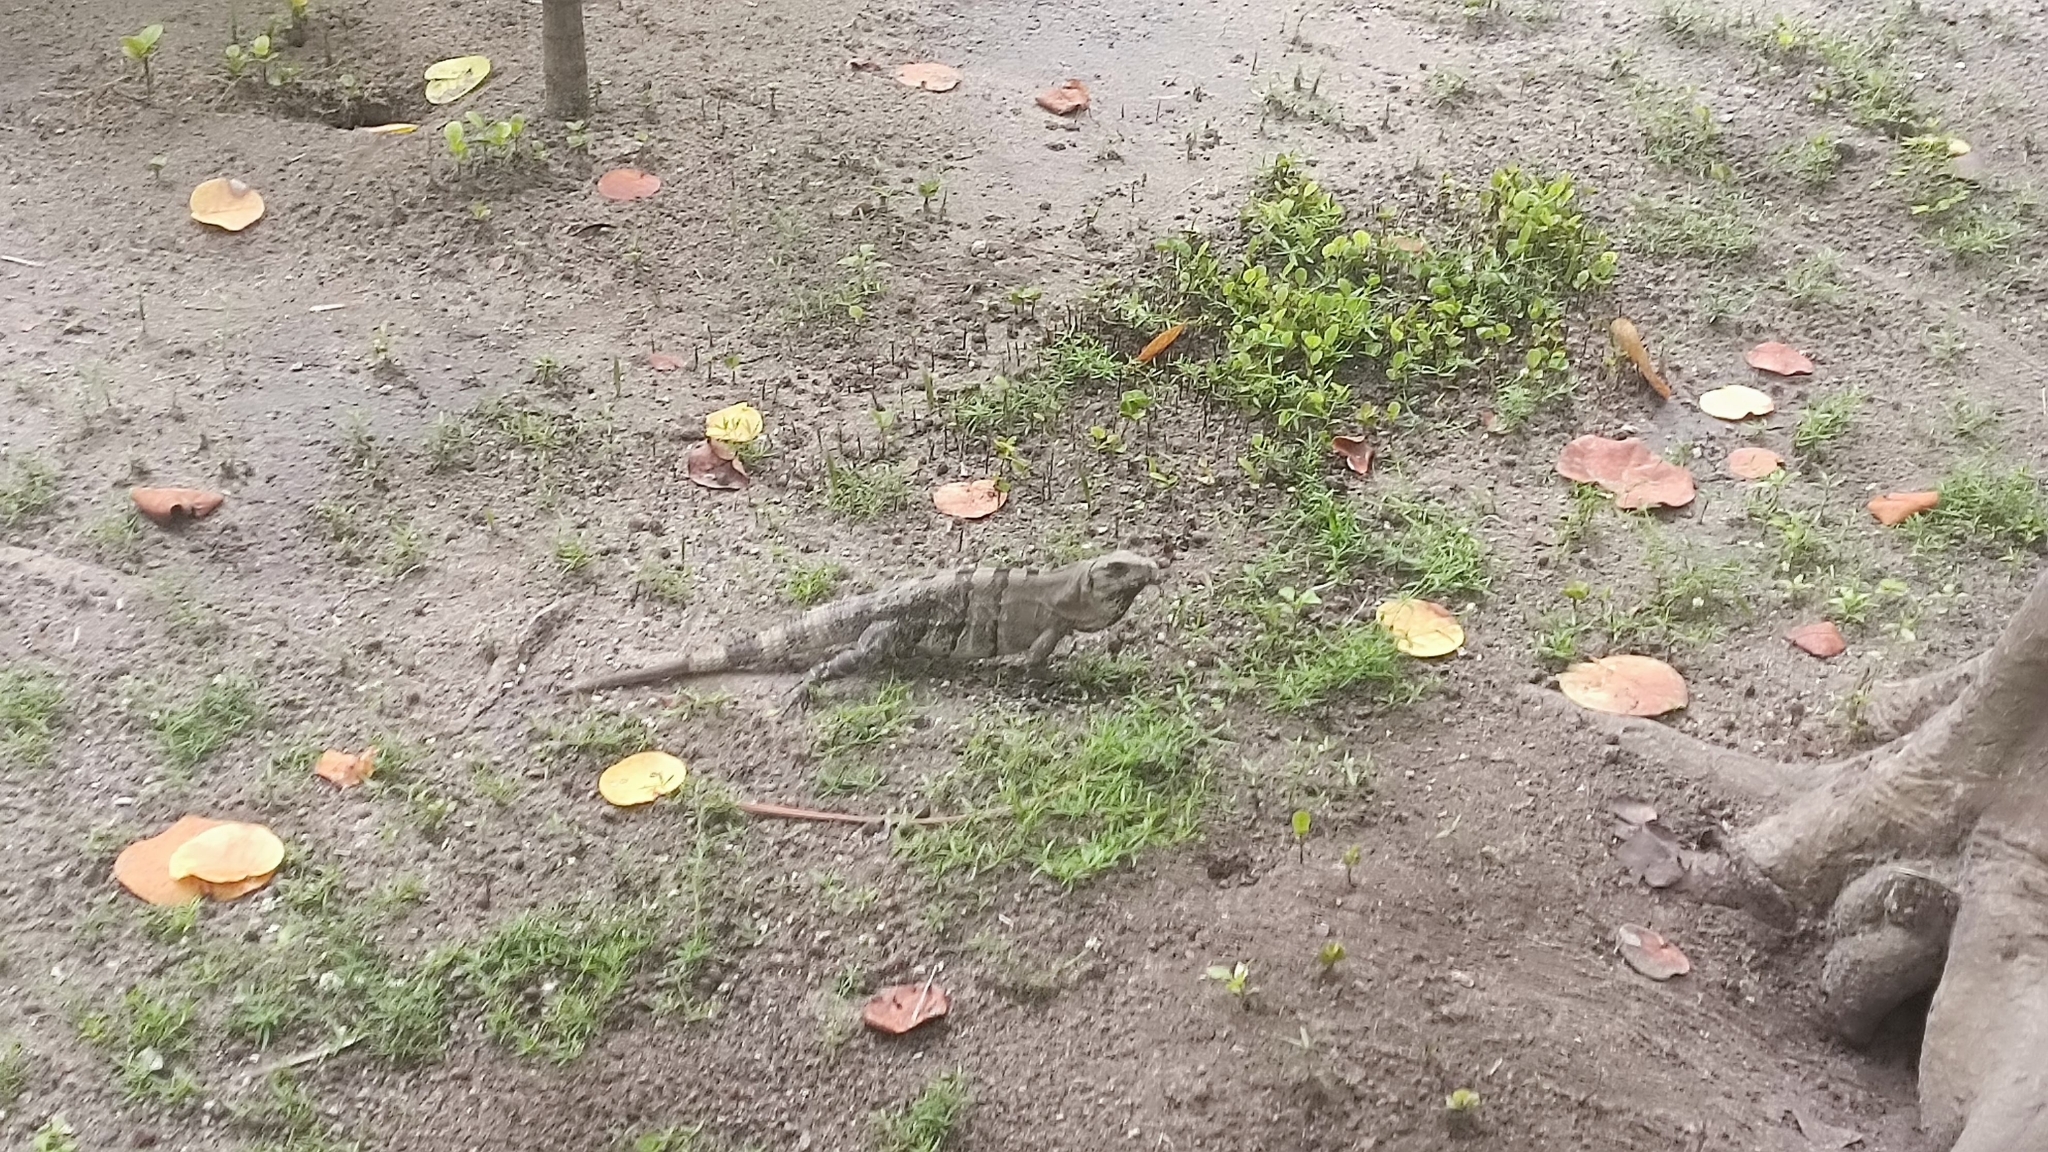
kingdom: Animalia
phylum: Chordata
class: Squamata
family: Iguanidae
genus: Ctenosaura
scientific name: Ctenosaura similis
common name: Black spiny-tailed iguana
